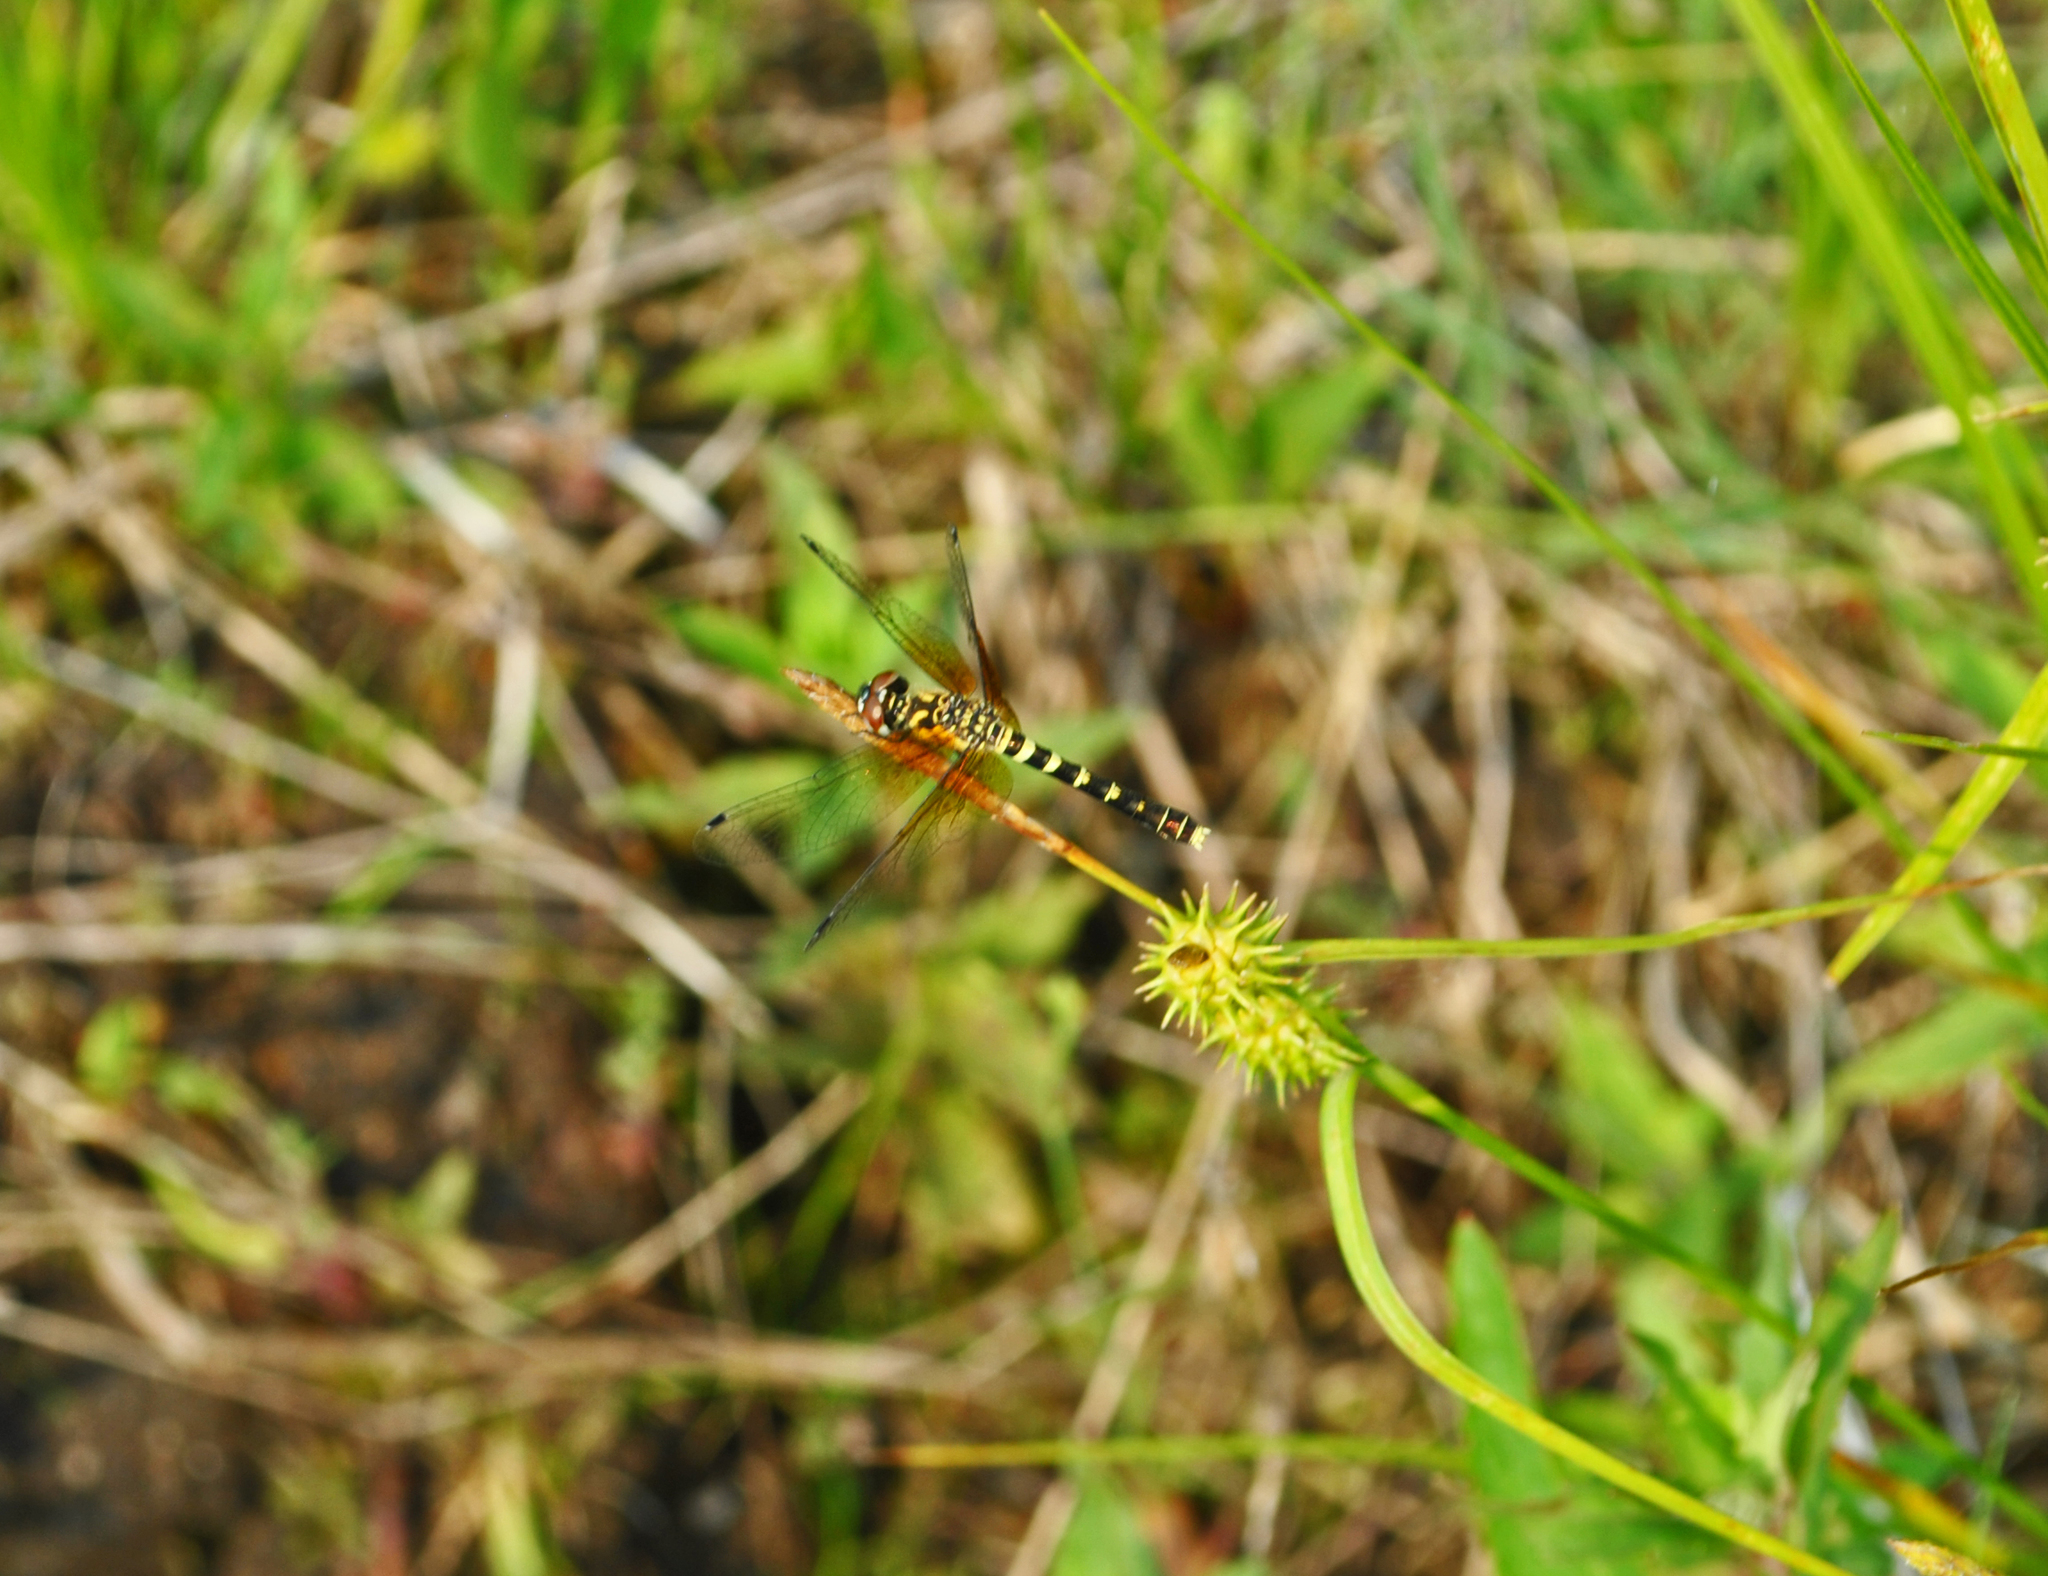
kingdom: Animalia
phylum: Arthropoda
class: Insecta
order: Odonata
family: Libellulidae
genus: Nannothemis
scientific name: Nannothemis bella
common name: Elfin skimmer
